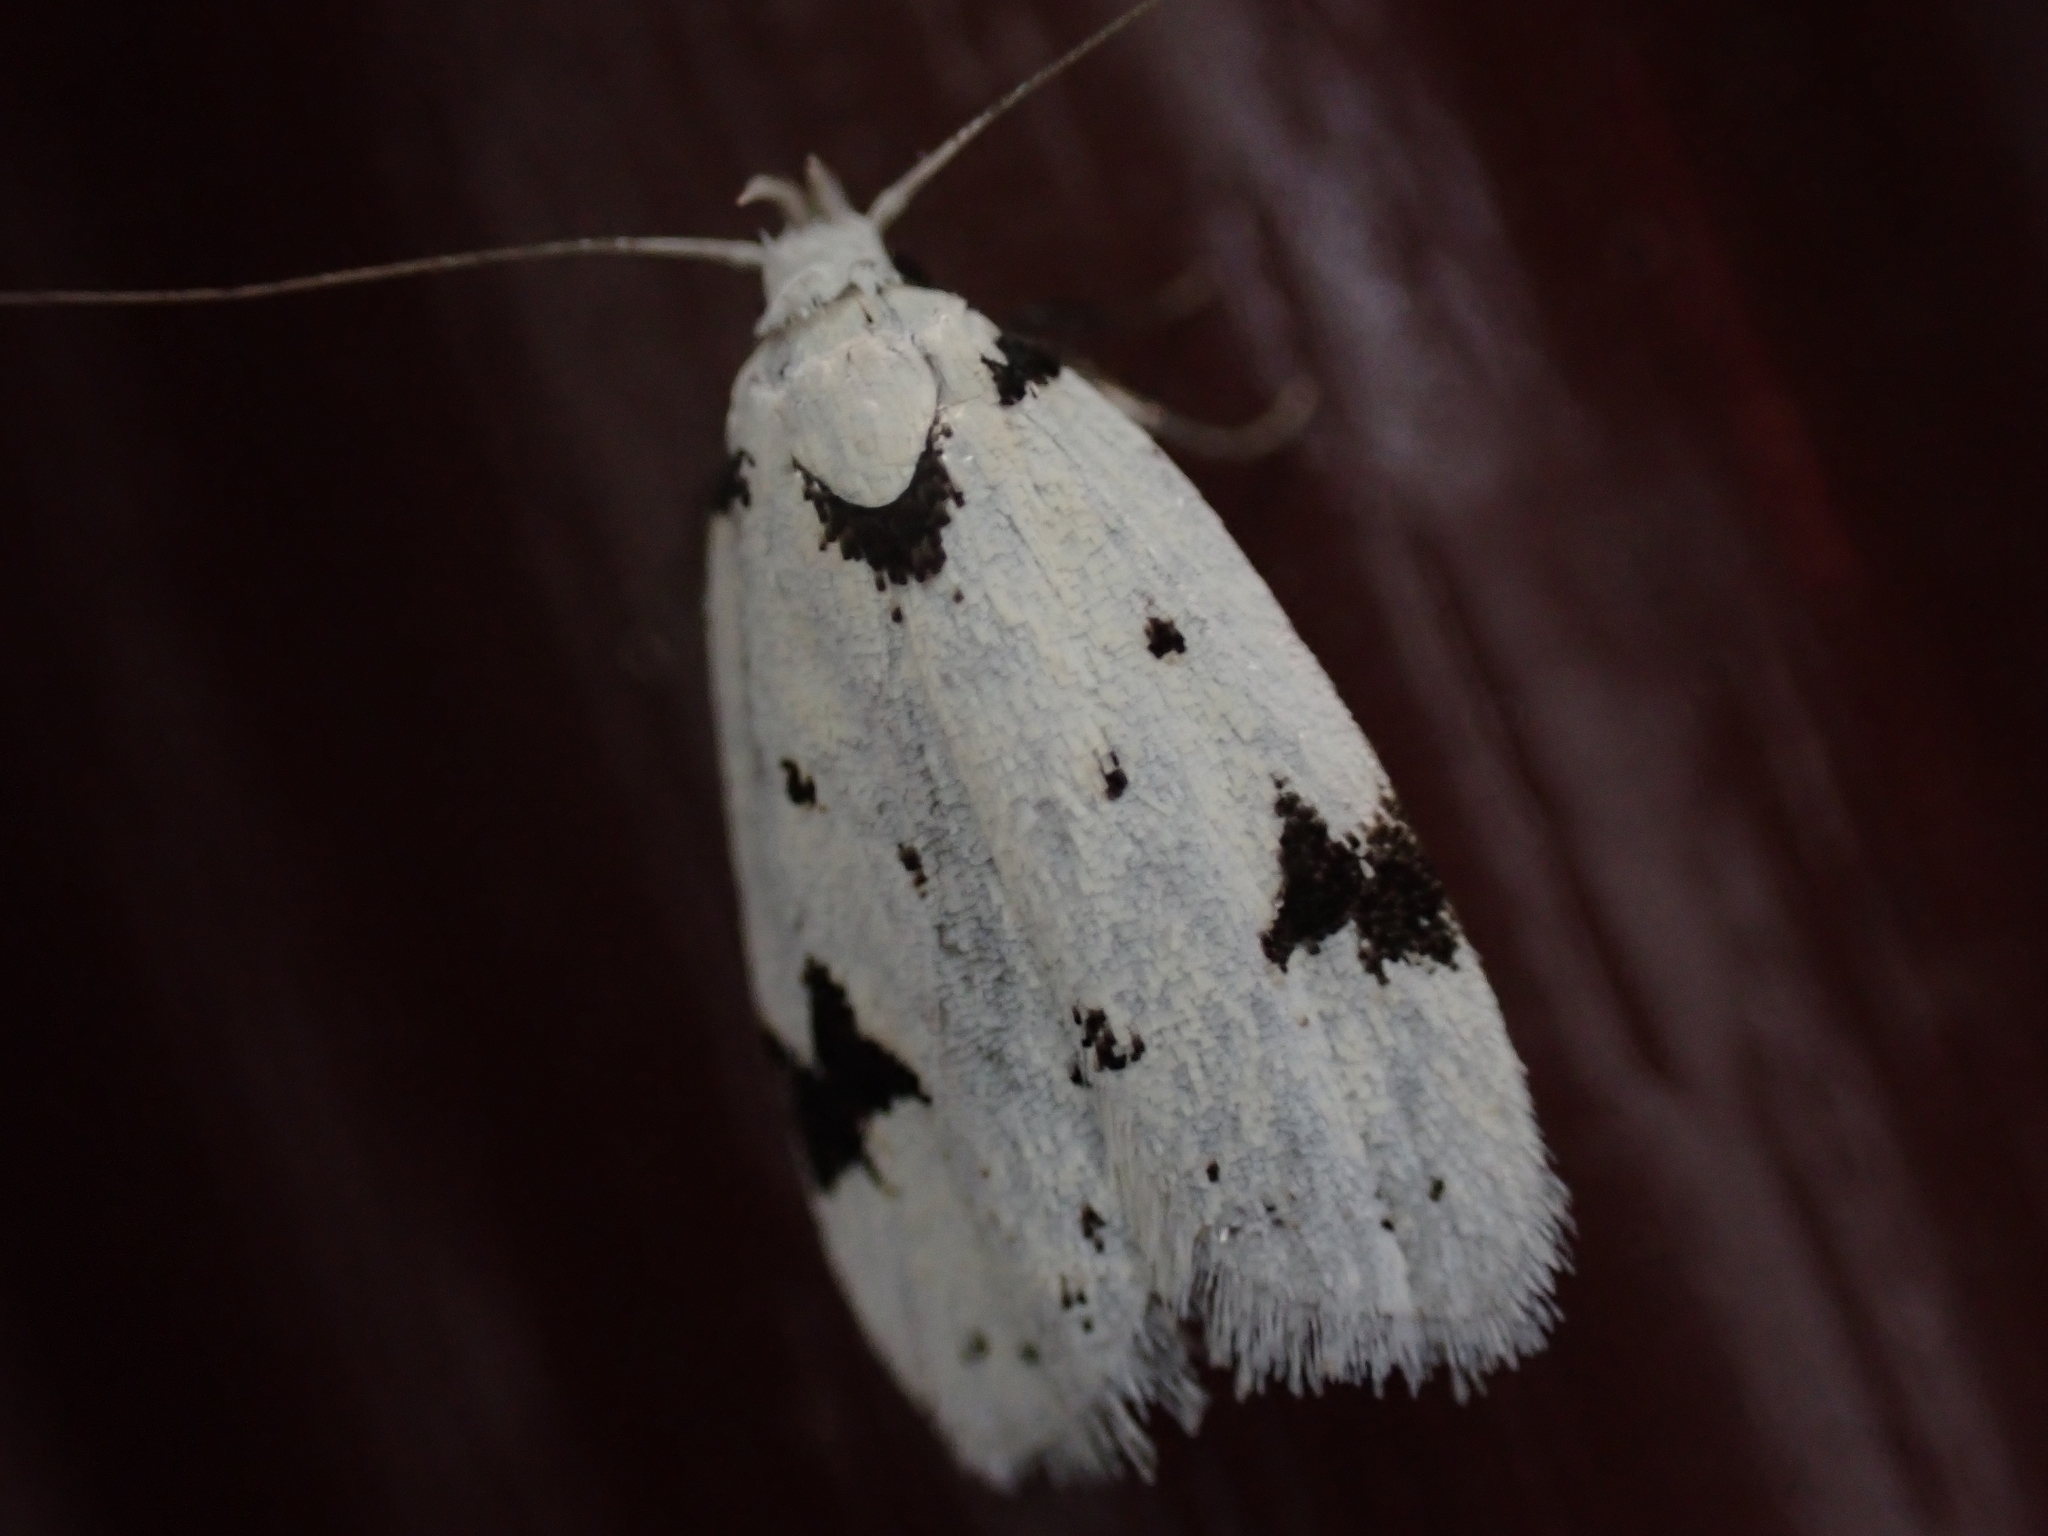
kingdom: Animalia
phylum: Arthropoda
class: Insecta
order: Lepidoptera
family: Oecophoridae
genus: Inga
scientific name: Inga sparsiciliella
